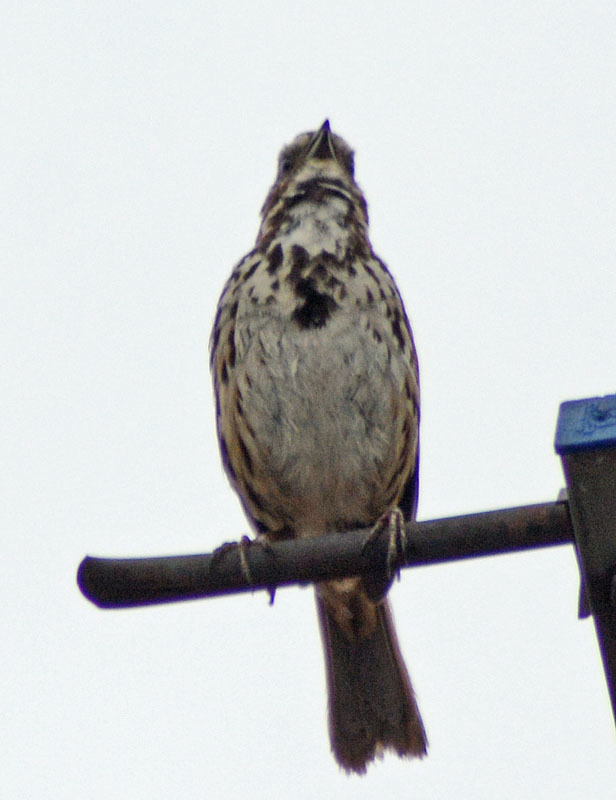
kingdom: Animalia
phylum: Chordata
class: Aves
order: Passeriformes
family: Passerellidae
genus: Melospiza
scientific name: Melospiza melodia
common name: Song sparrow
